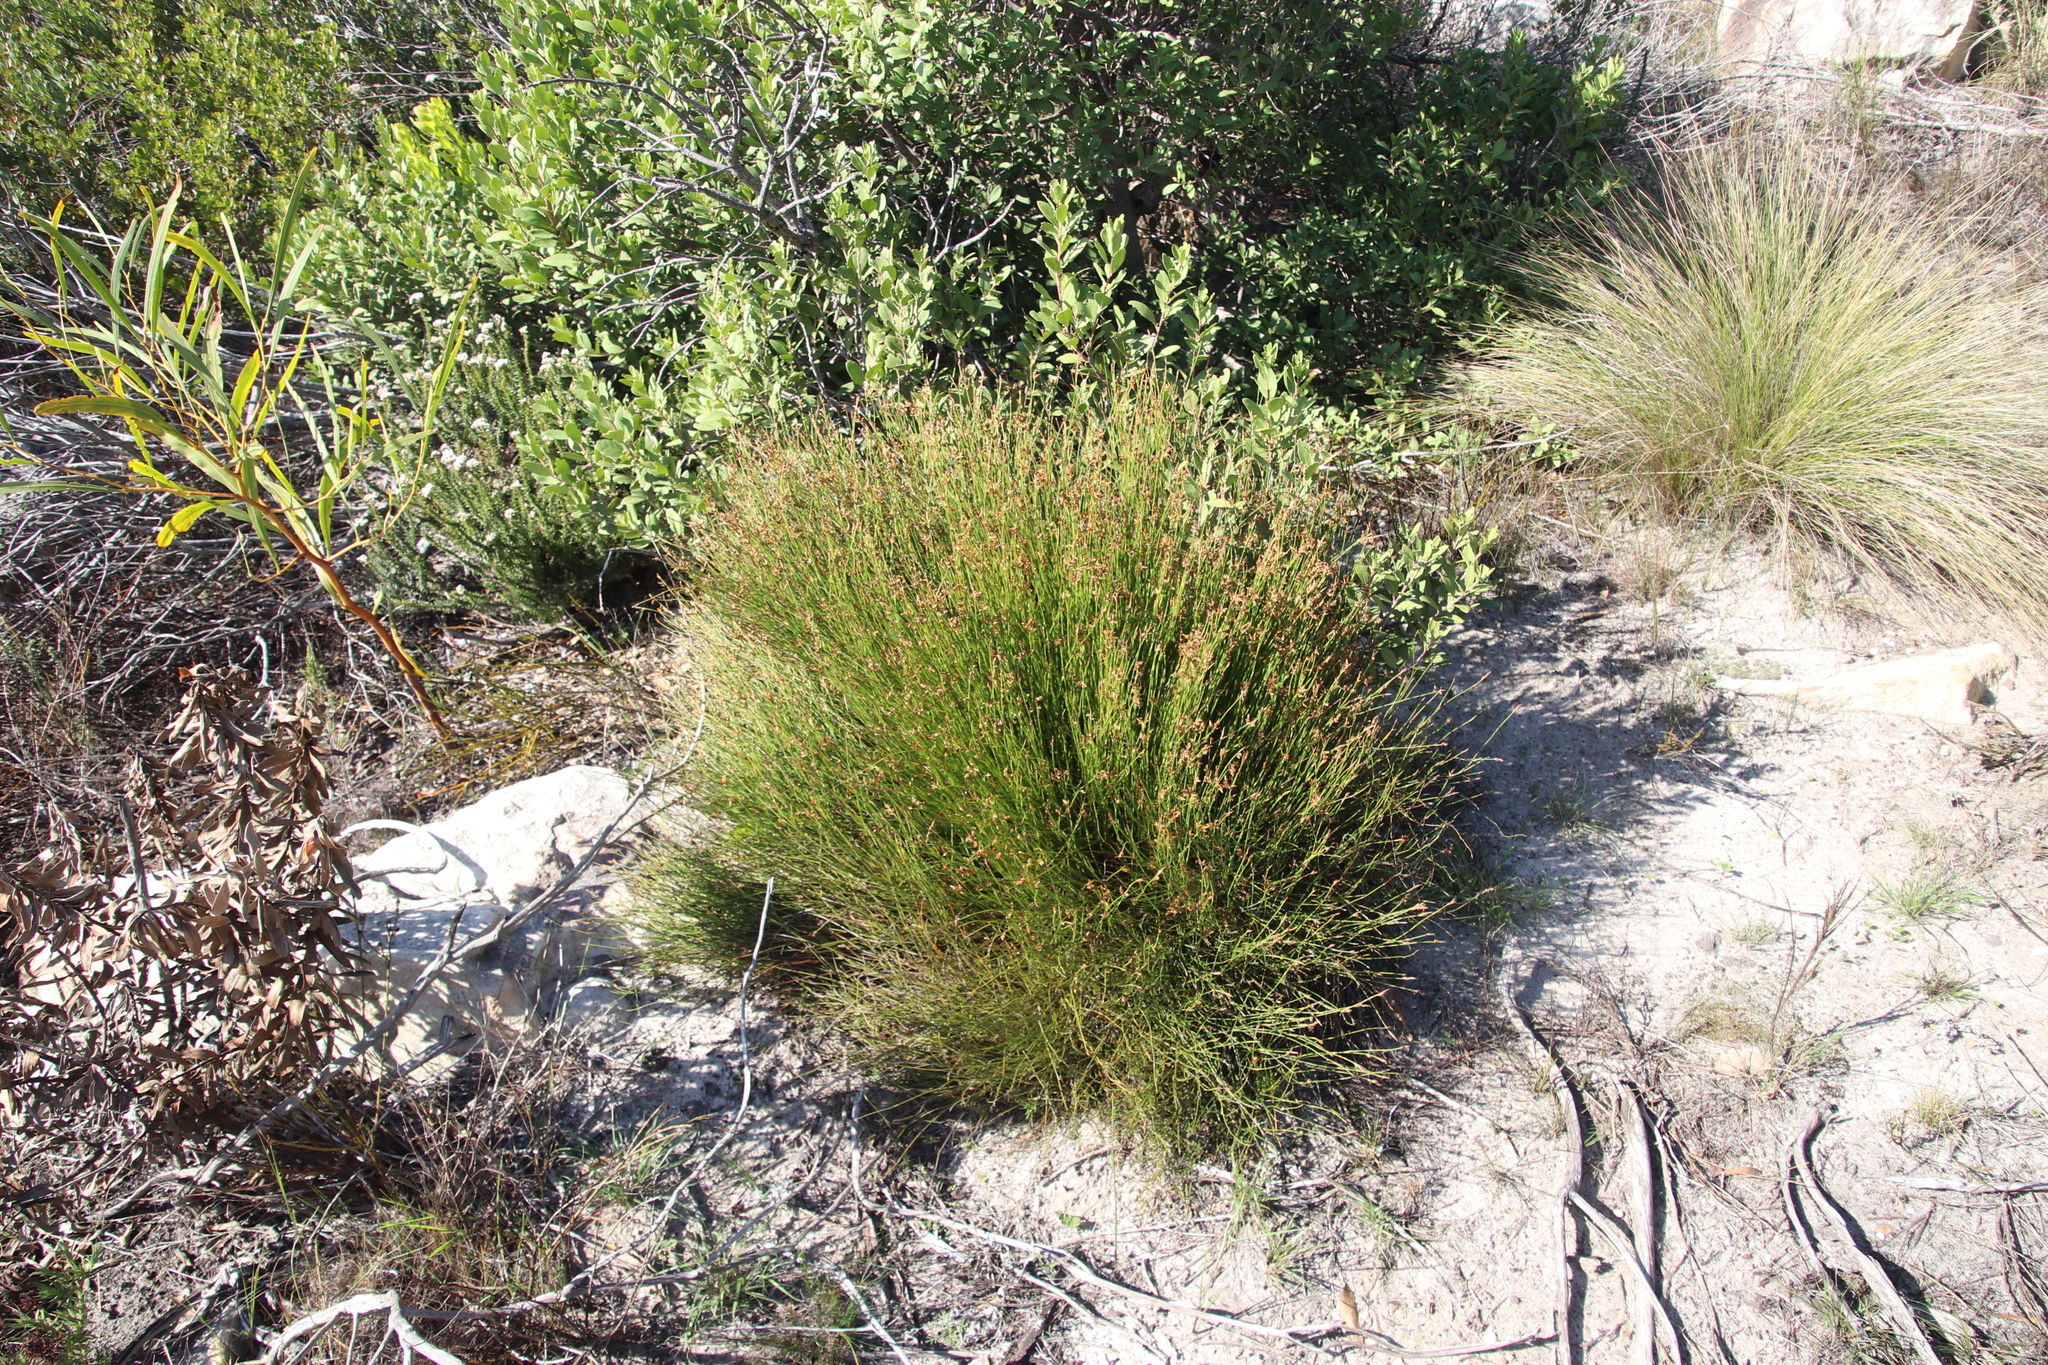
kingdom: Plantae
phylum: Tracheophyta
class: Liliopsida
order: Poales
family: Restionaceae
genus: Mastersiella
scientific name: Mastersiella digitata
